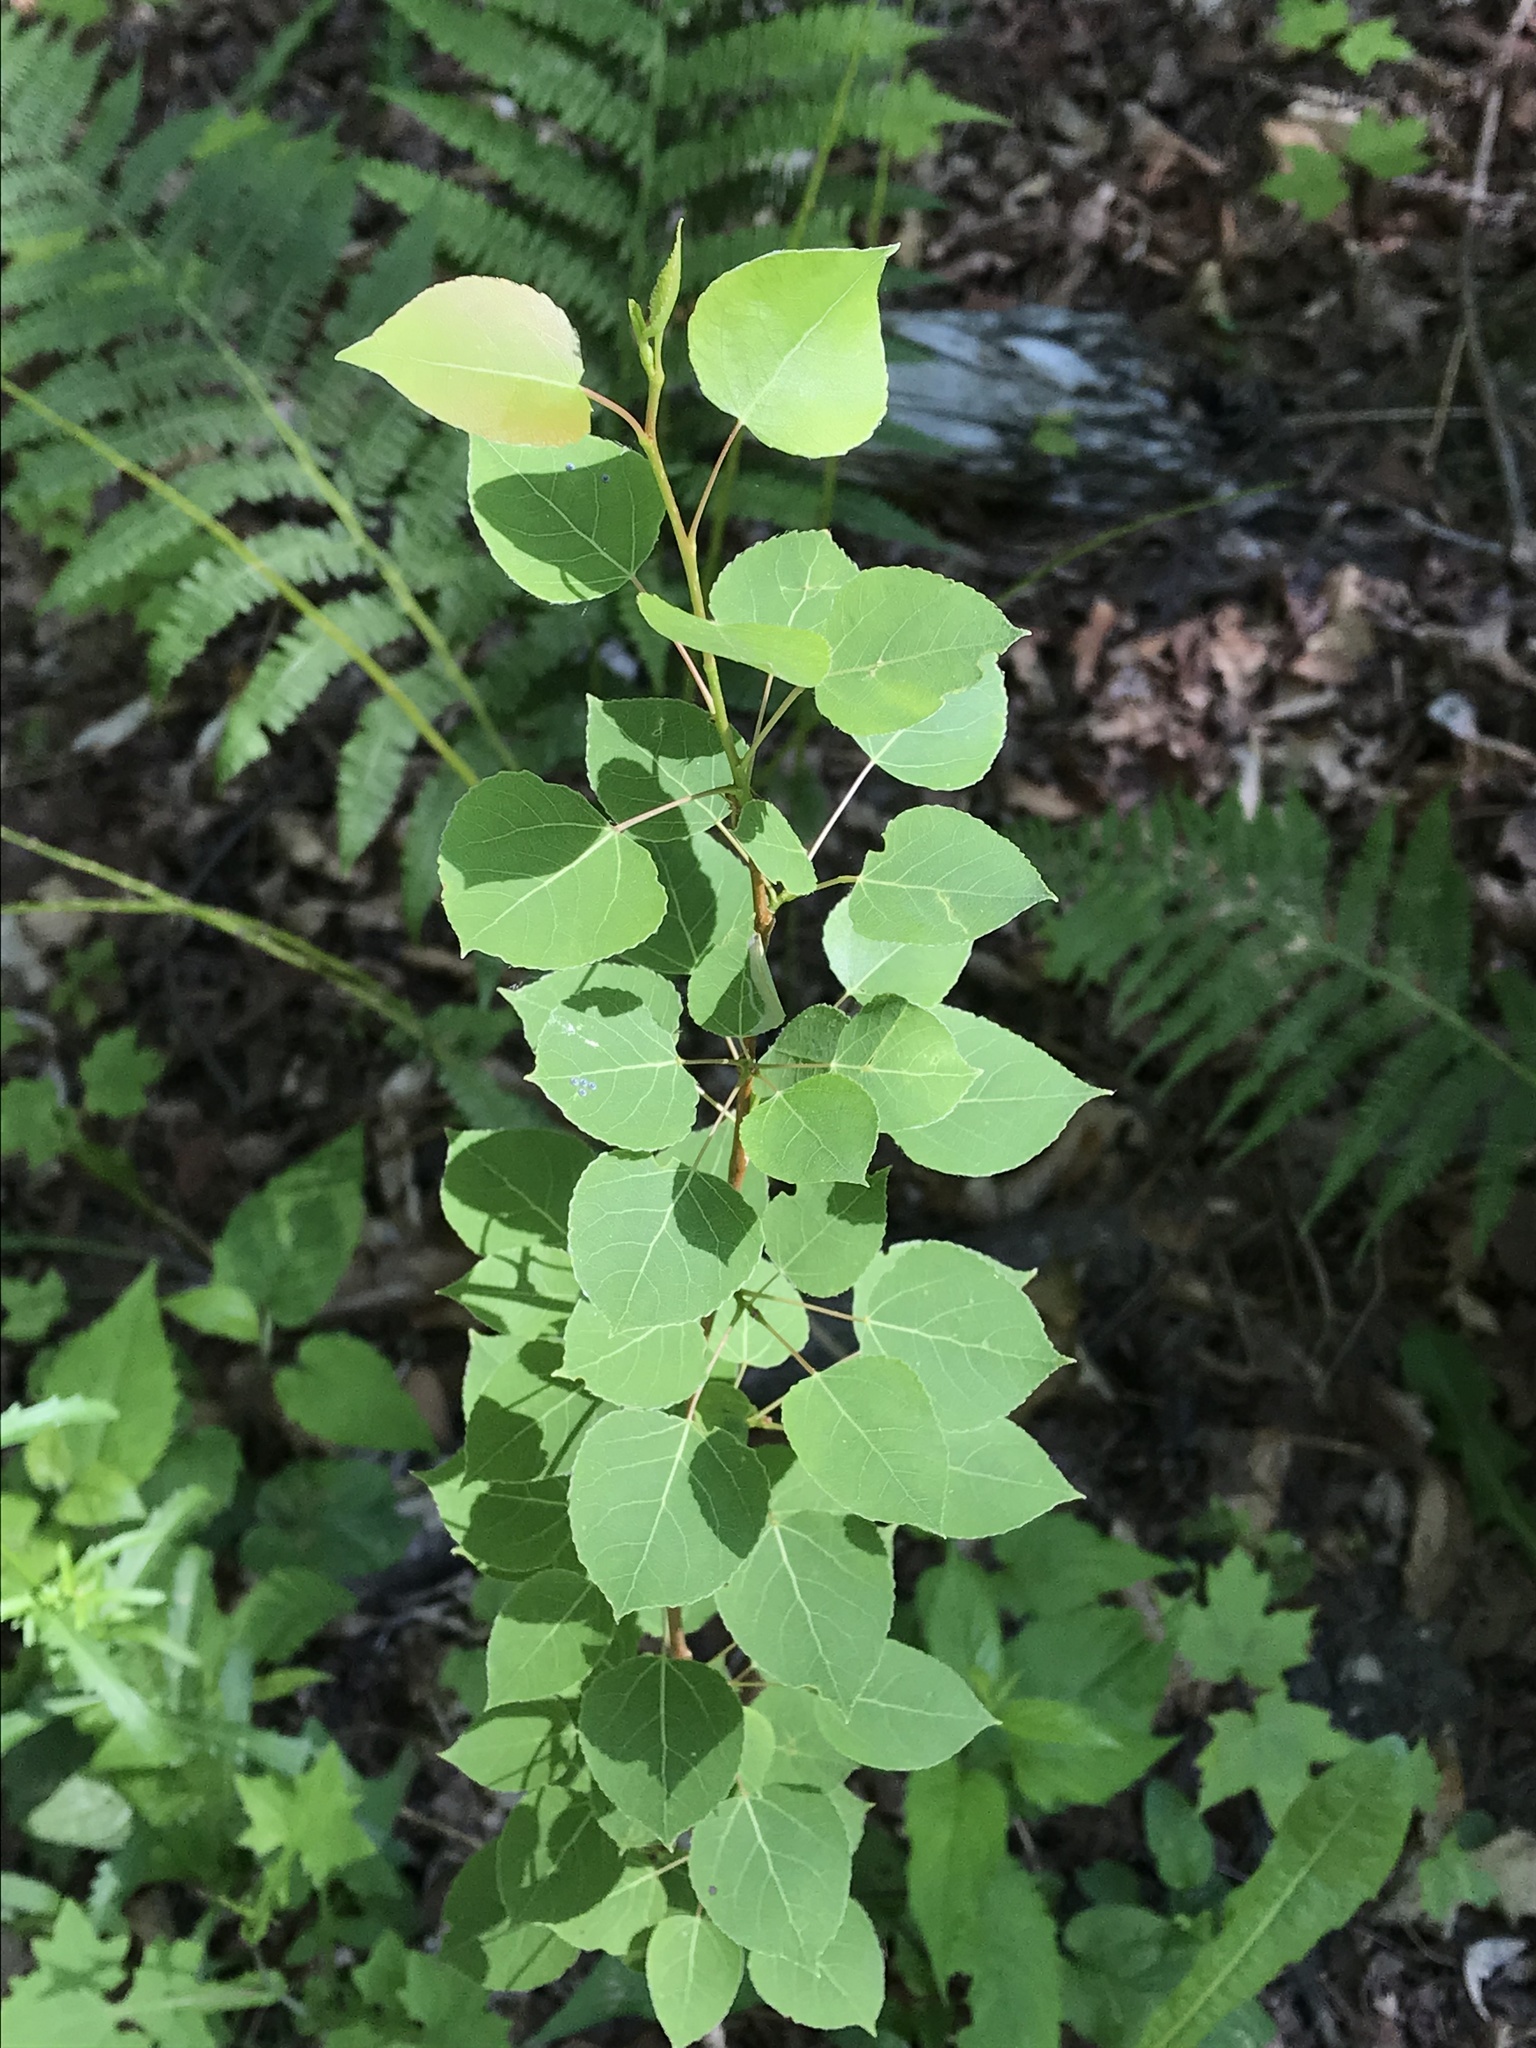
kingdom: Plantae
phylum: Tracheophyta
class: Magnoliopsida
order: Malpighiales
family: Salicaceae
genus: Populus
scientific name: Populus tremuloides
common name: Quaking aspen
